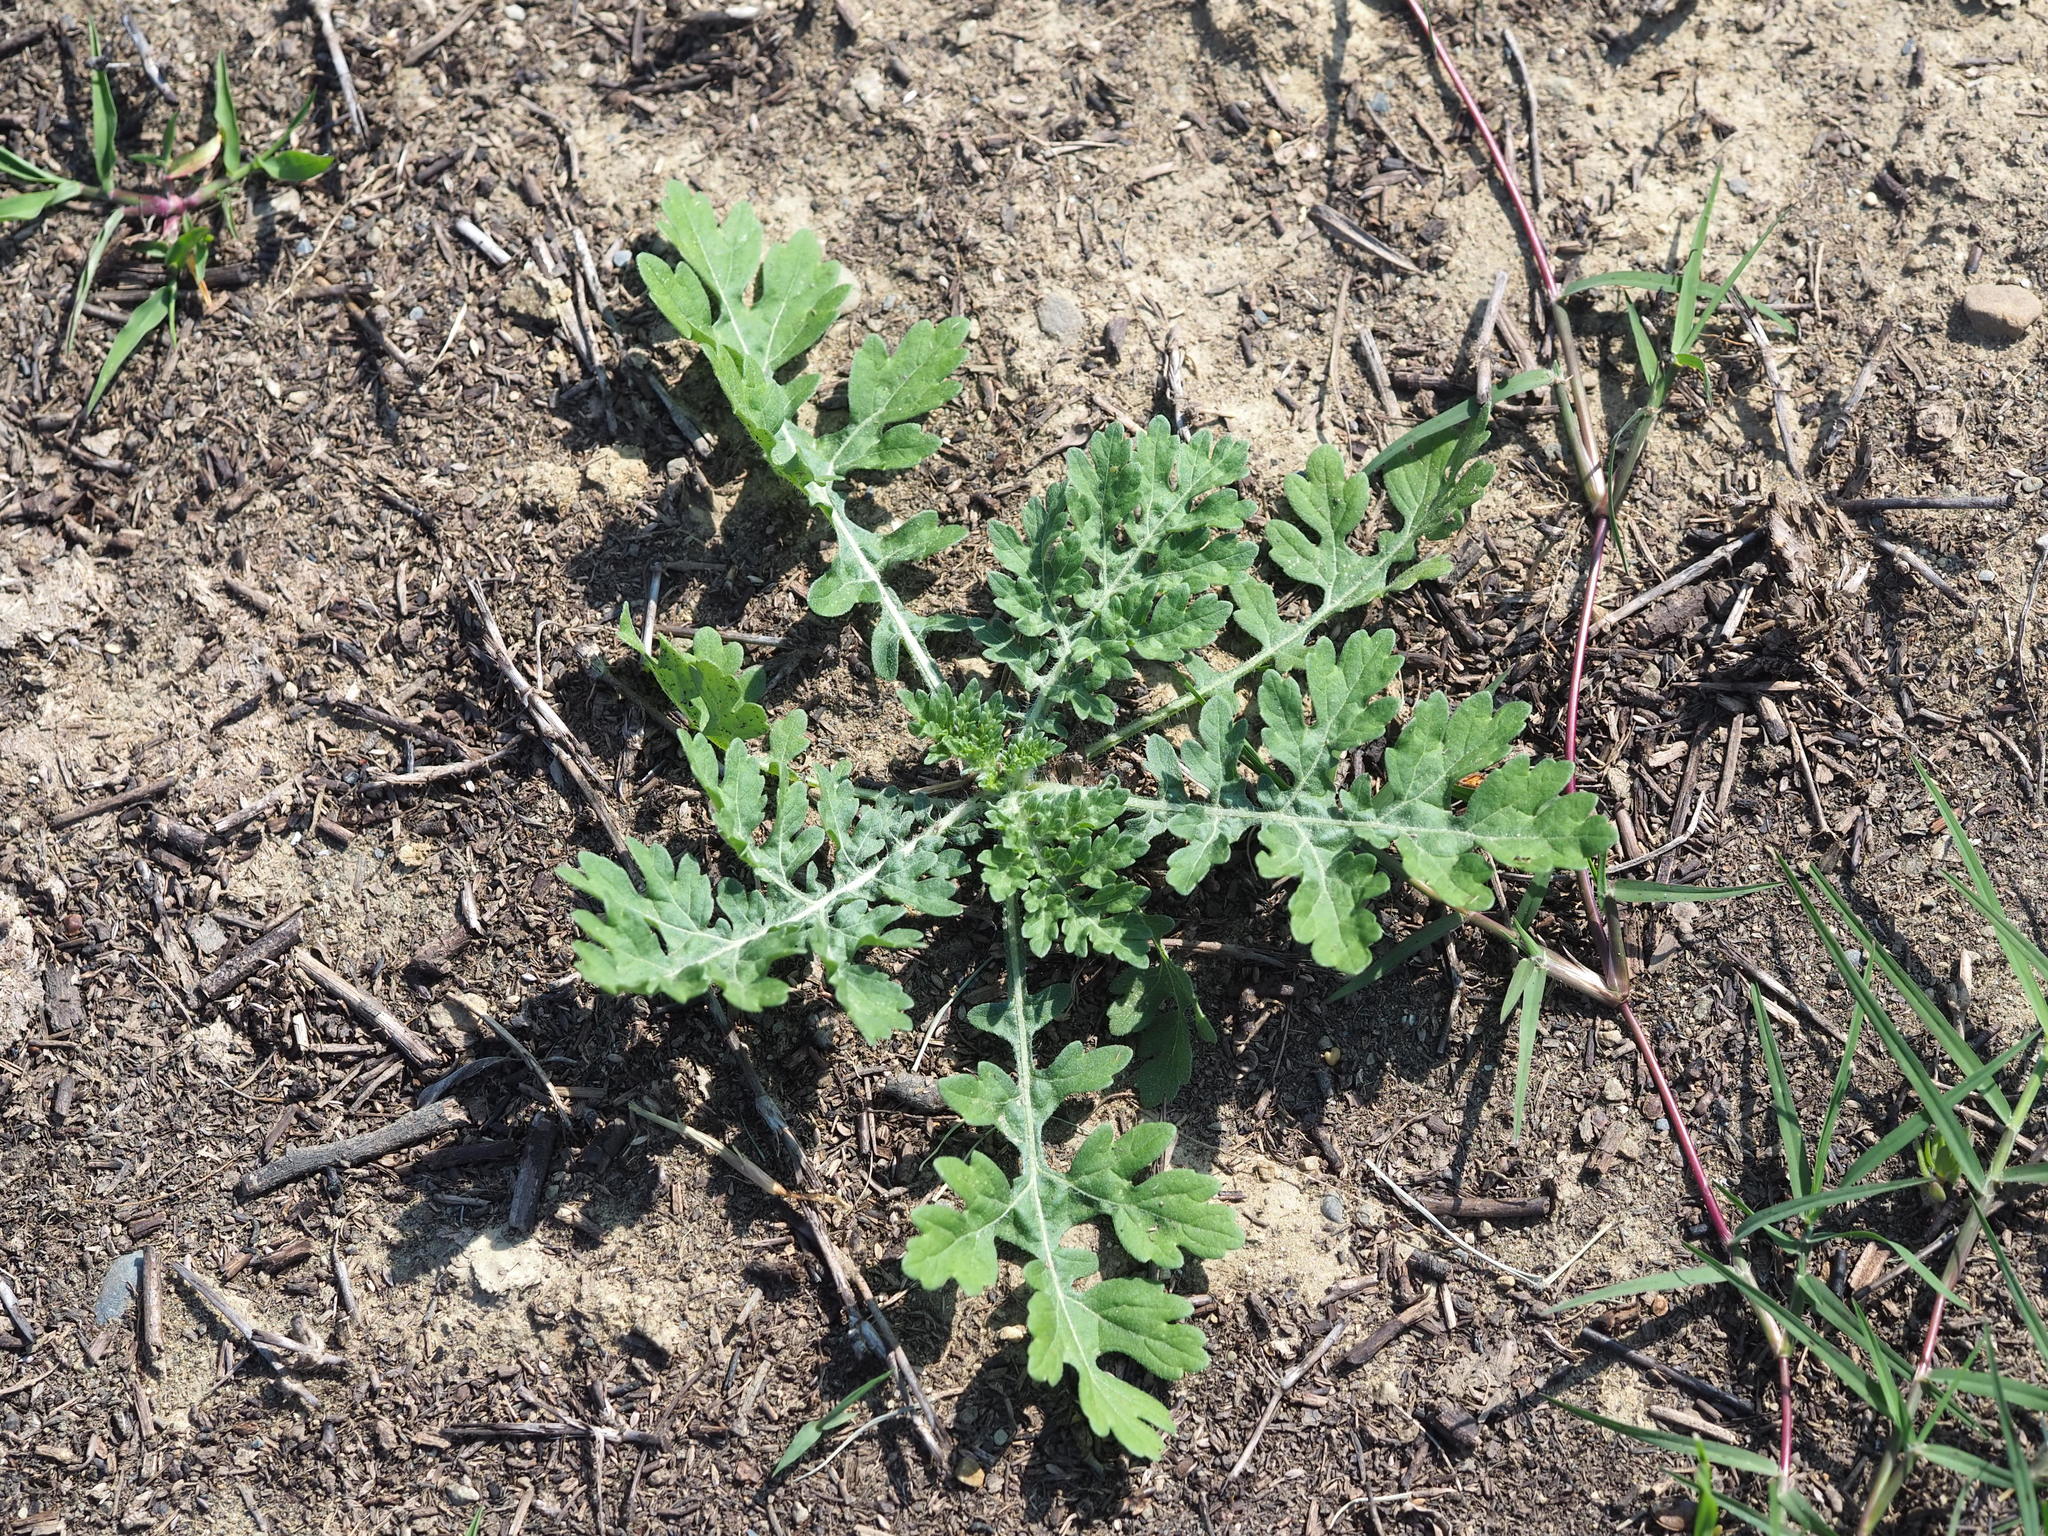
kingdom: Plantae
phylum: Tracheophyta
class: Magnoliopsida
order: Asterales
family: Asteraceae
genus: Parthenium
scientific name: Parthenium hysterophorus
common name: Santa maria feverfew
